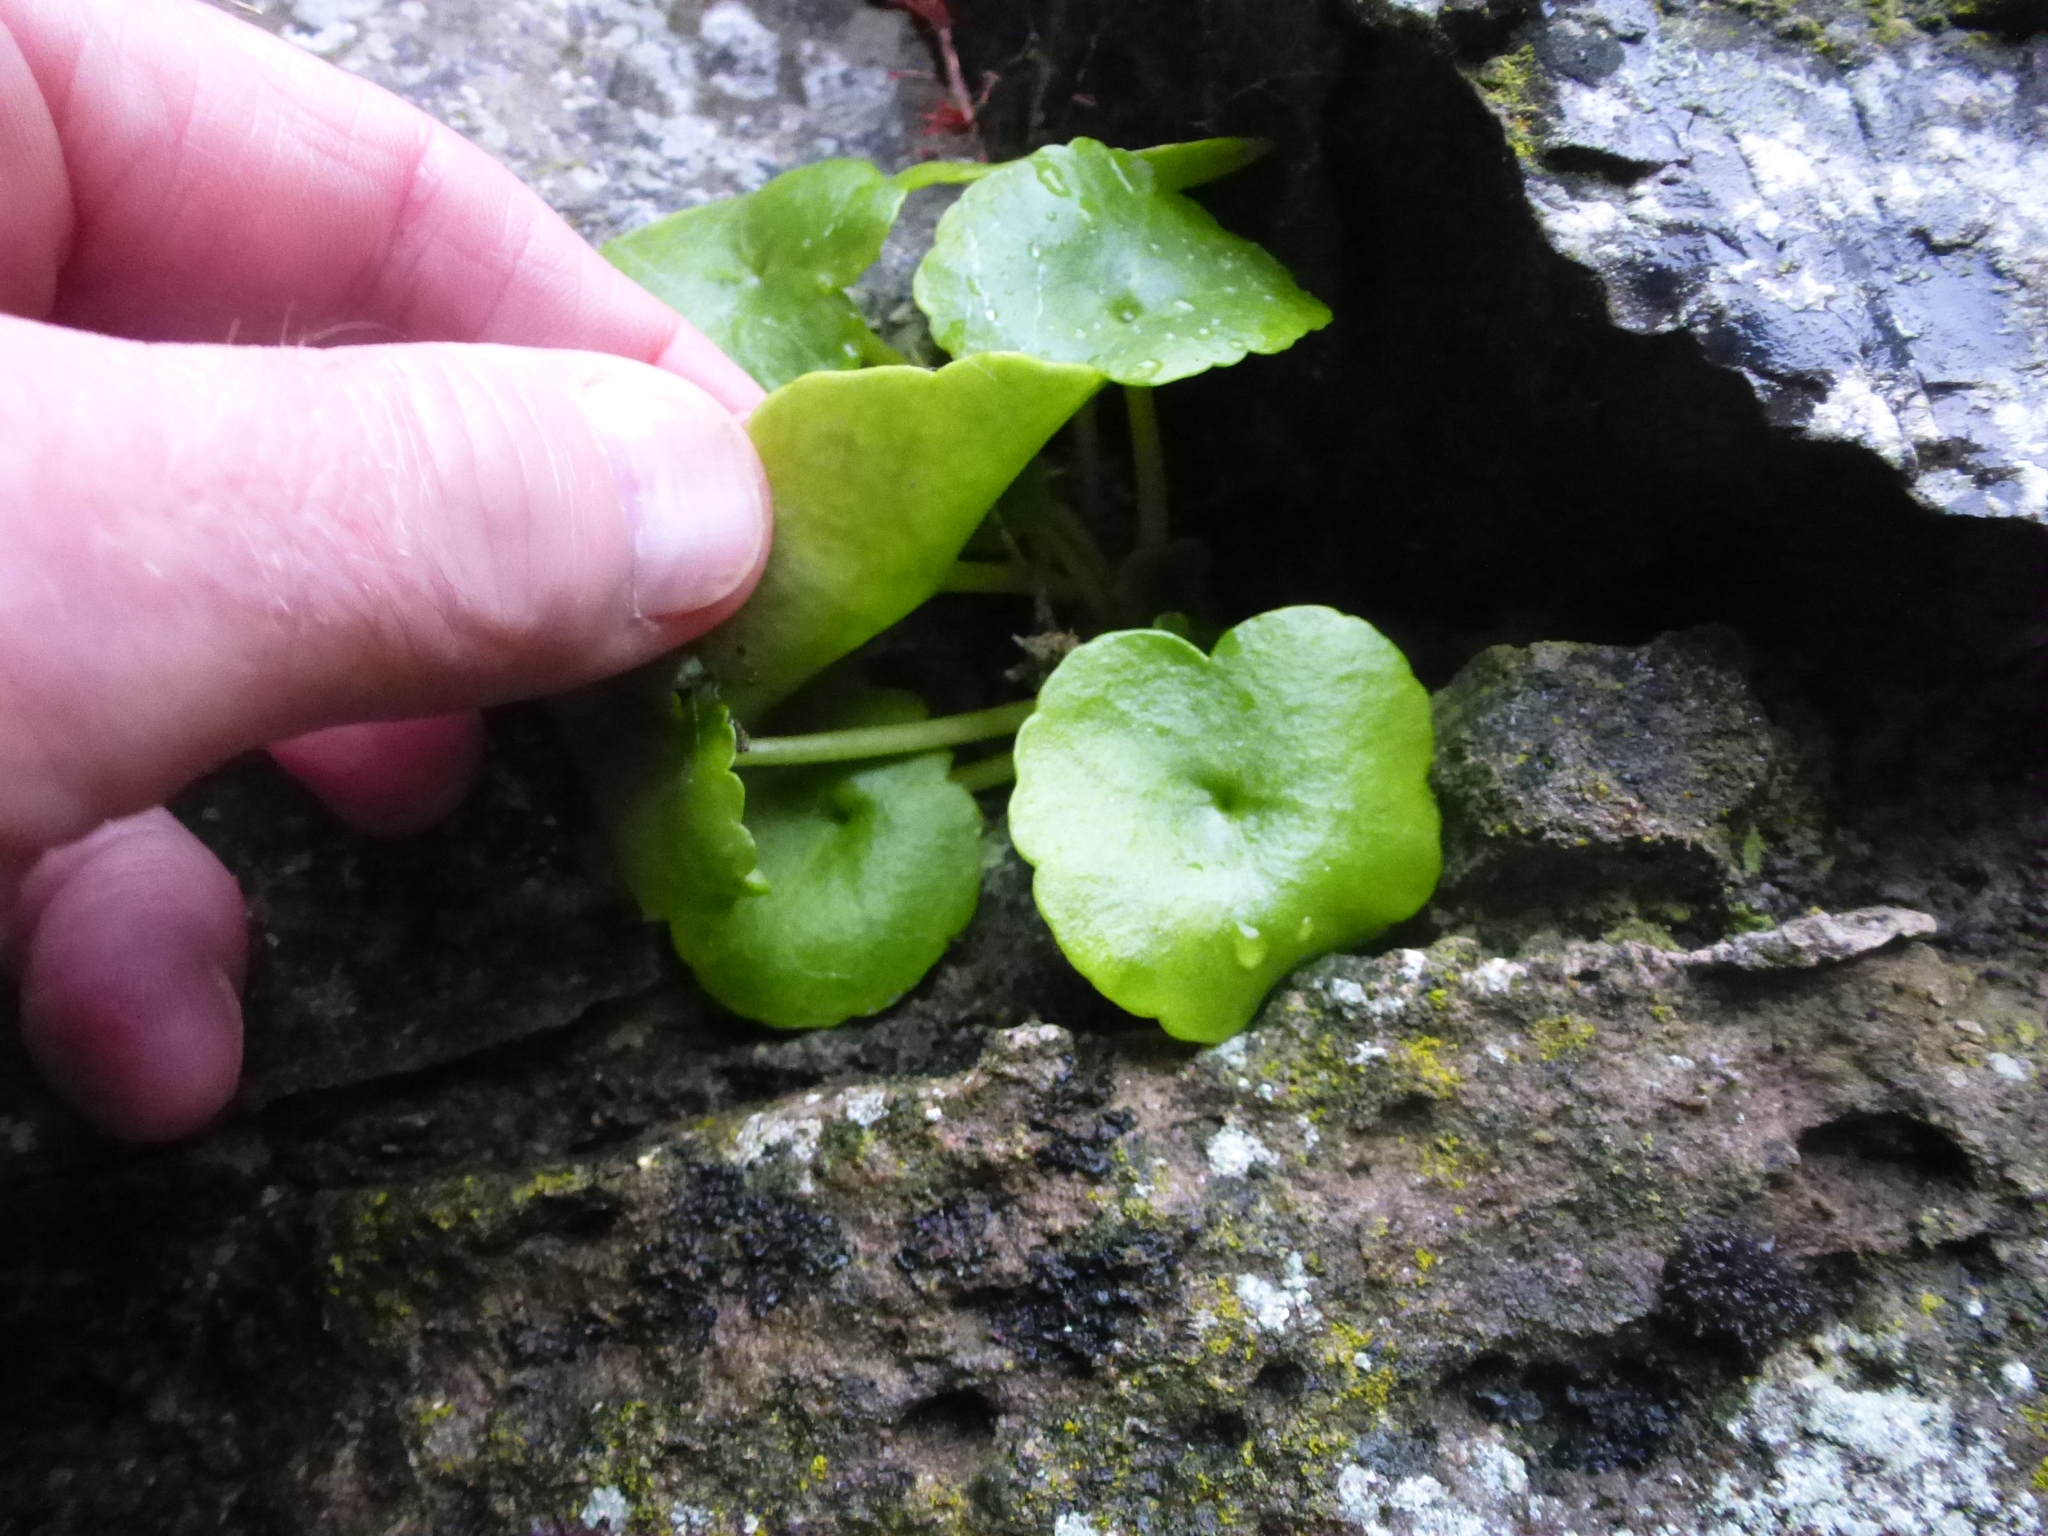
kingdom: Plantae
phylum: Tracheophyta
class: Magnoliopsida
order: Saxifragales
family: Crassulaceae
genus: Umbilicus
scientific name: Umbilicus rupestris
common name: Navelwort
